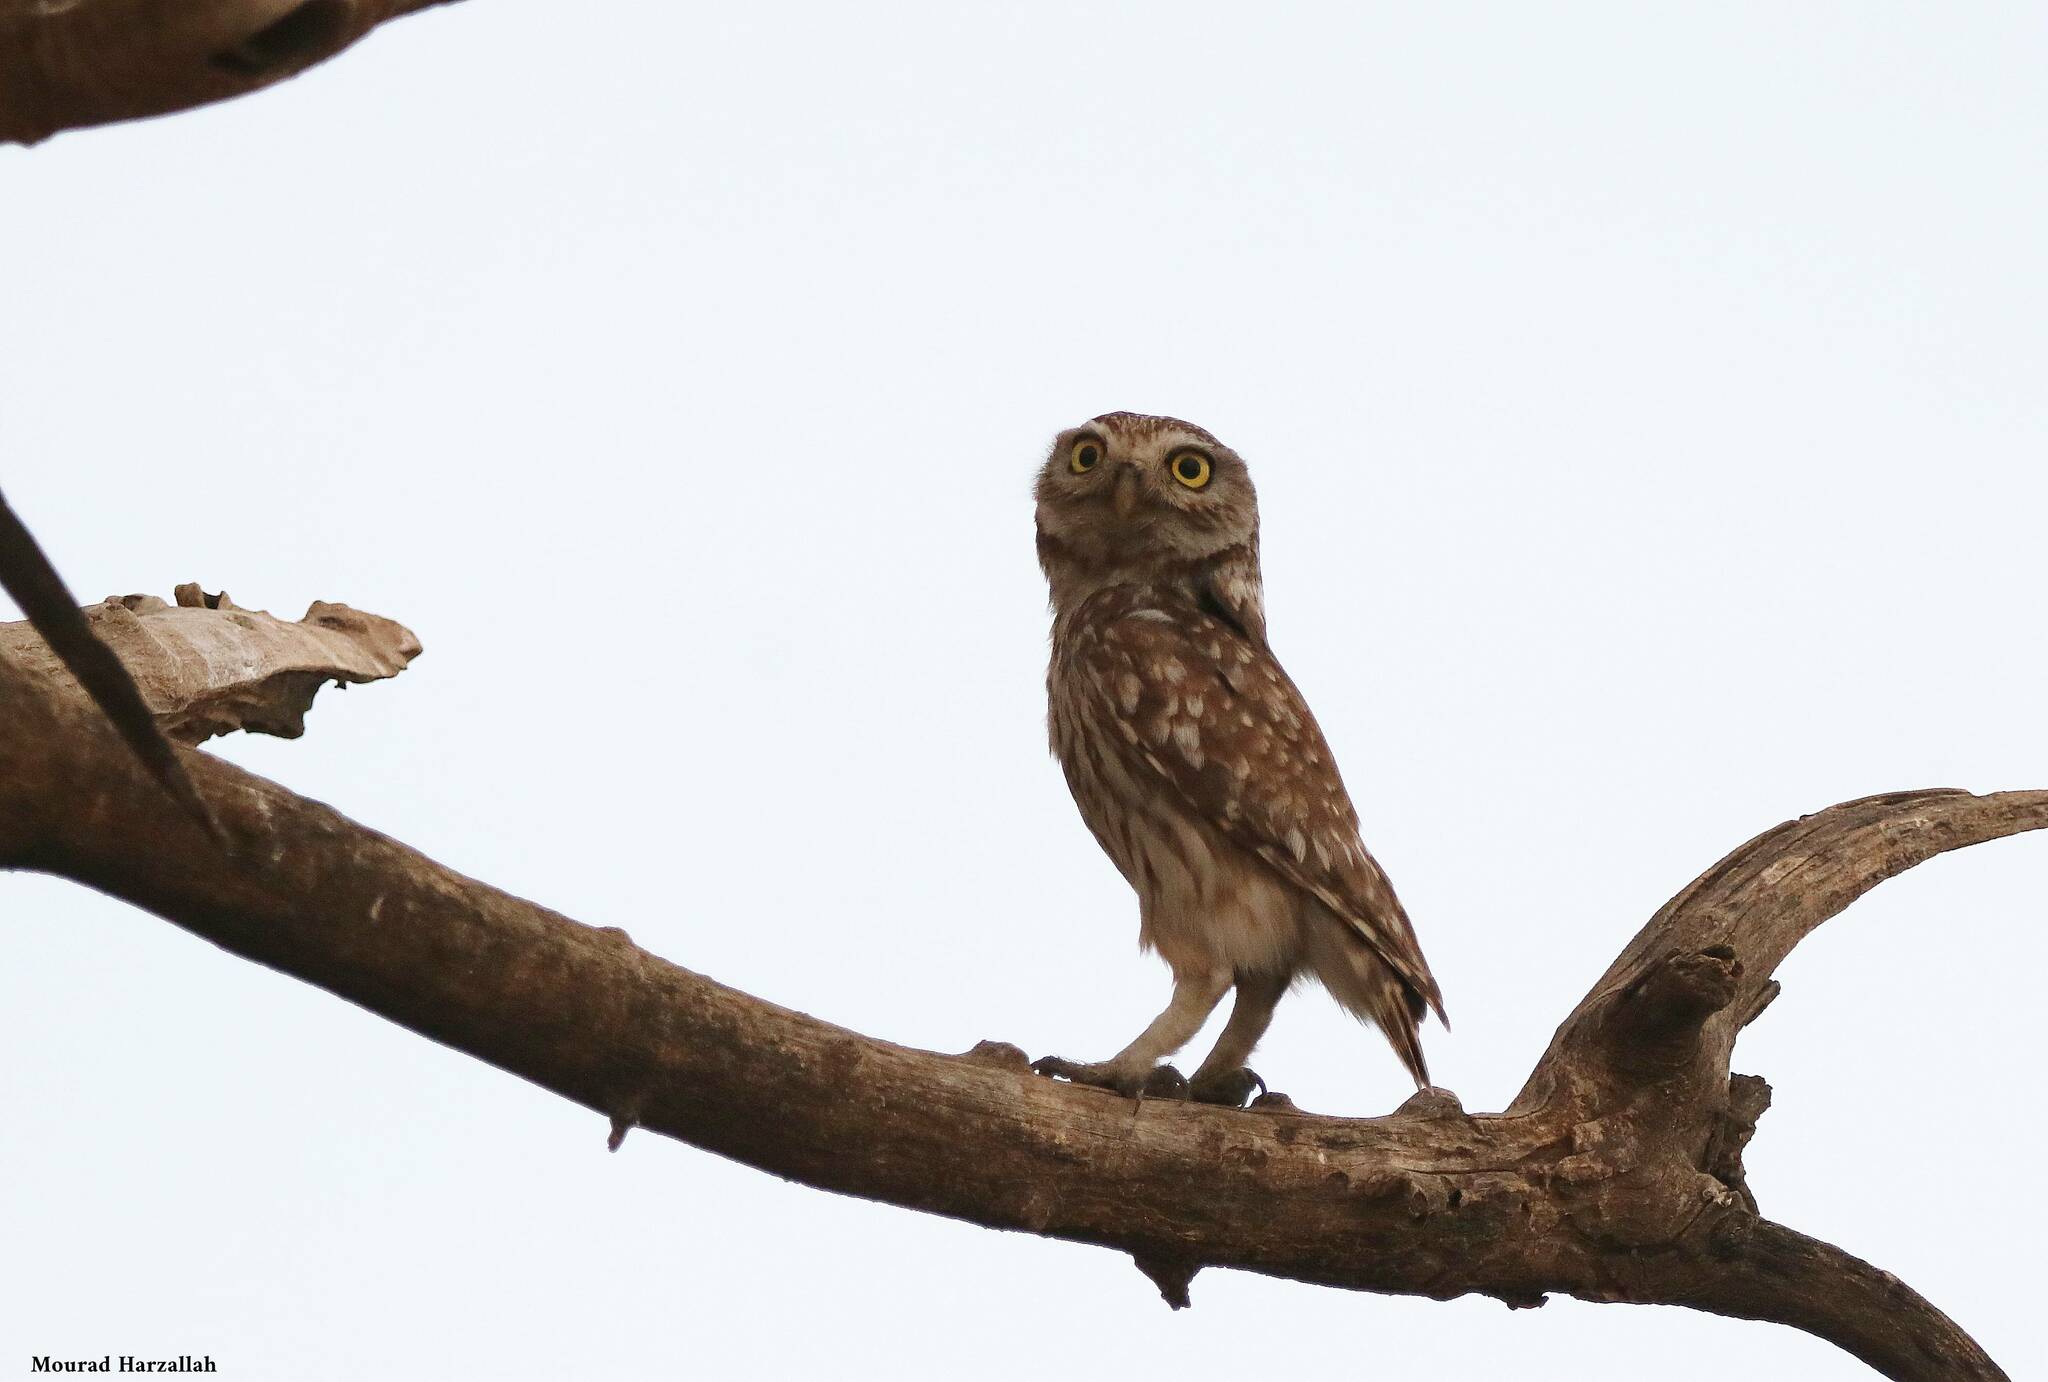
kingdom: Animalia
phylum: Chordata
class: Aves
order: Strigiformes
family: Strigidae
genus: Athene
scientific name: Athene noctua
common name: Little owl
